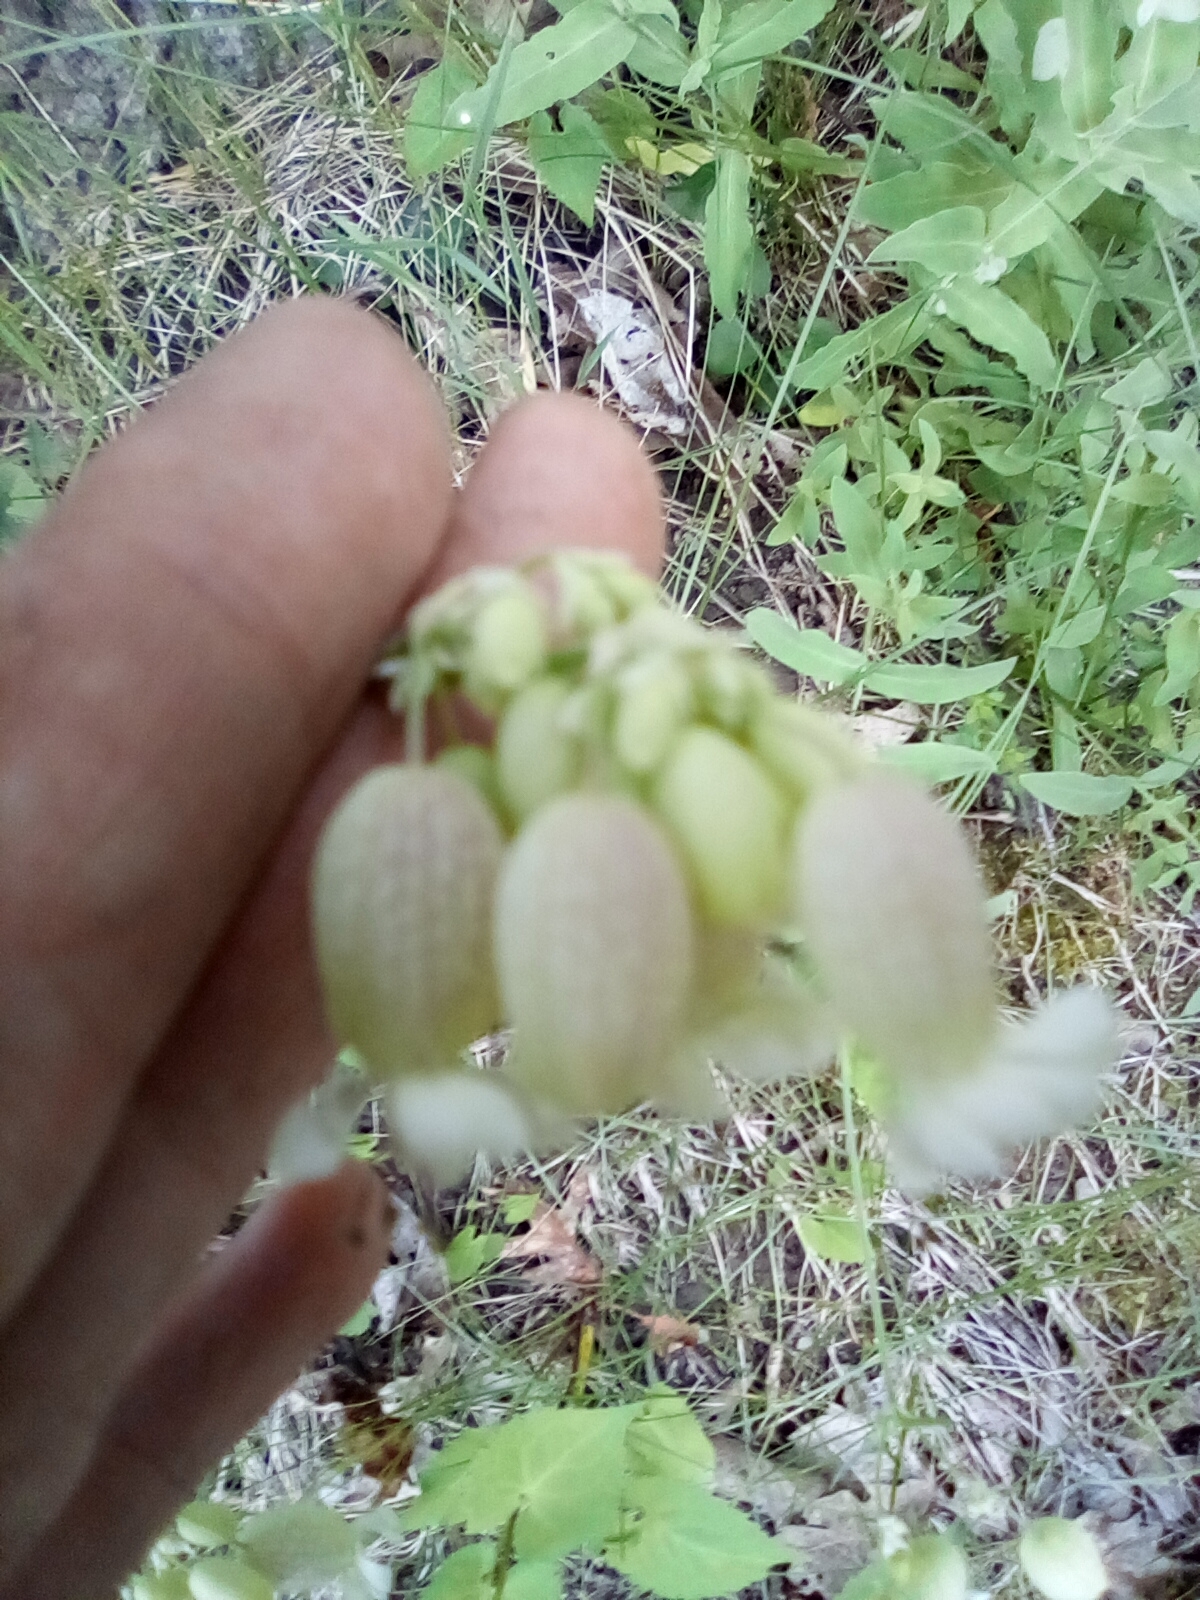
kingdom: Plantae
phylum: Tracheophyta
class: Magnoliopsida
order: Caryophyllales
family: Caryophyllaceae
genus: Silene
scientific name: Silene vulgaris
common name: Bladder campion
